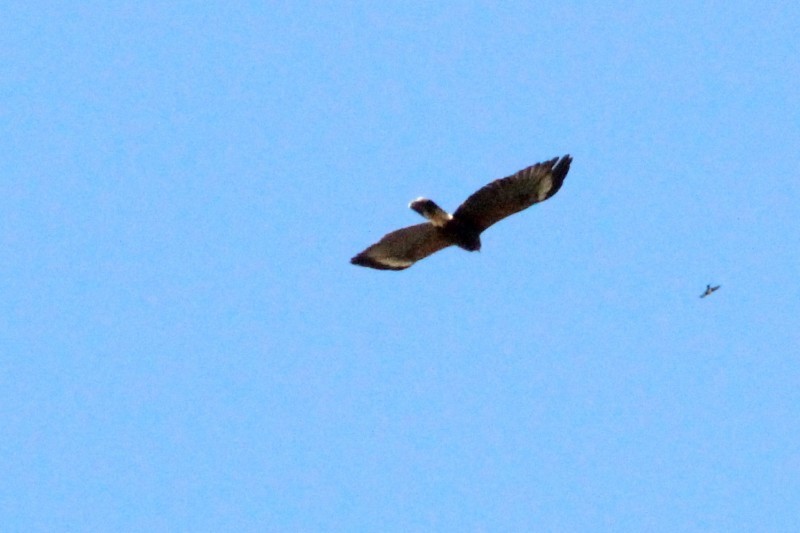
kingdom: Animalia
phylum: Chordata
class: Aves
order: Accipitriformes
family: Accipitridae
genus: Parabuteo
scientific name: Parabuteo unicinctus
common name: Harris's hawk
